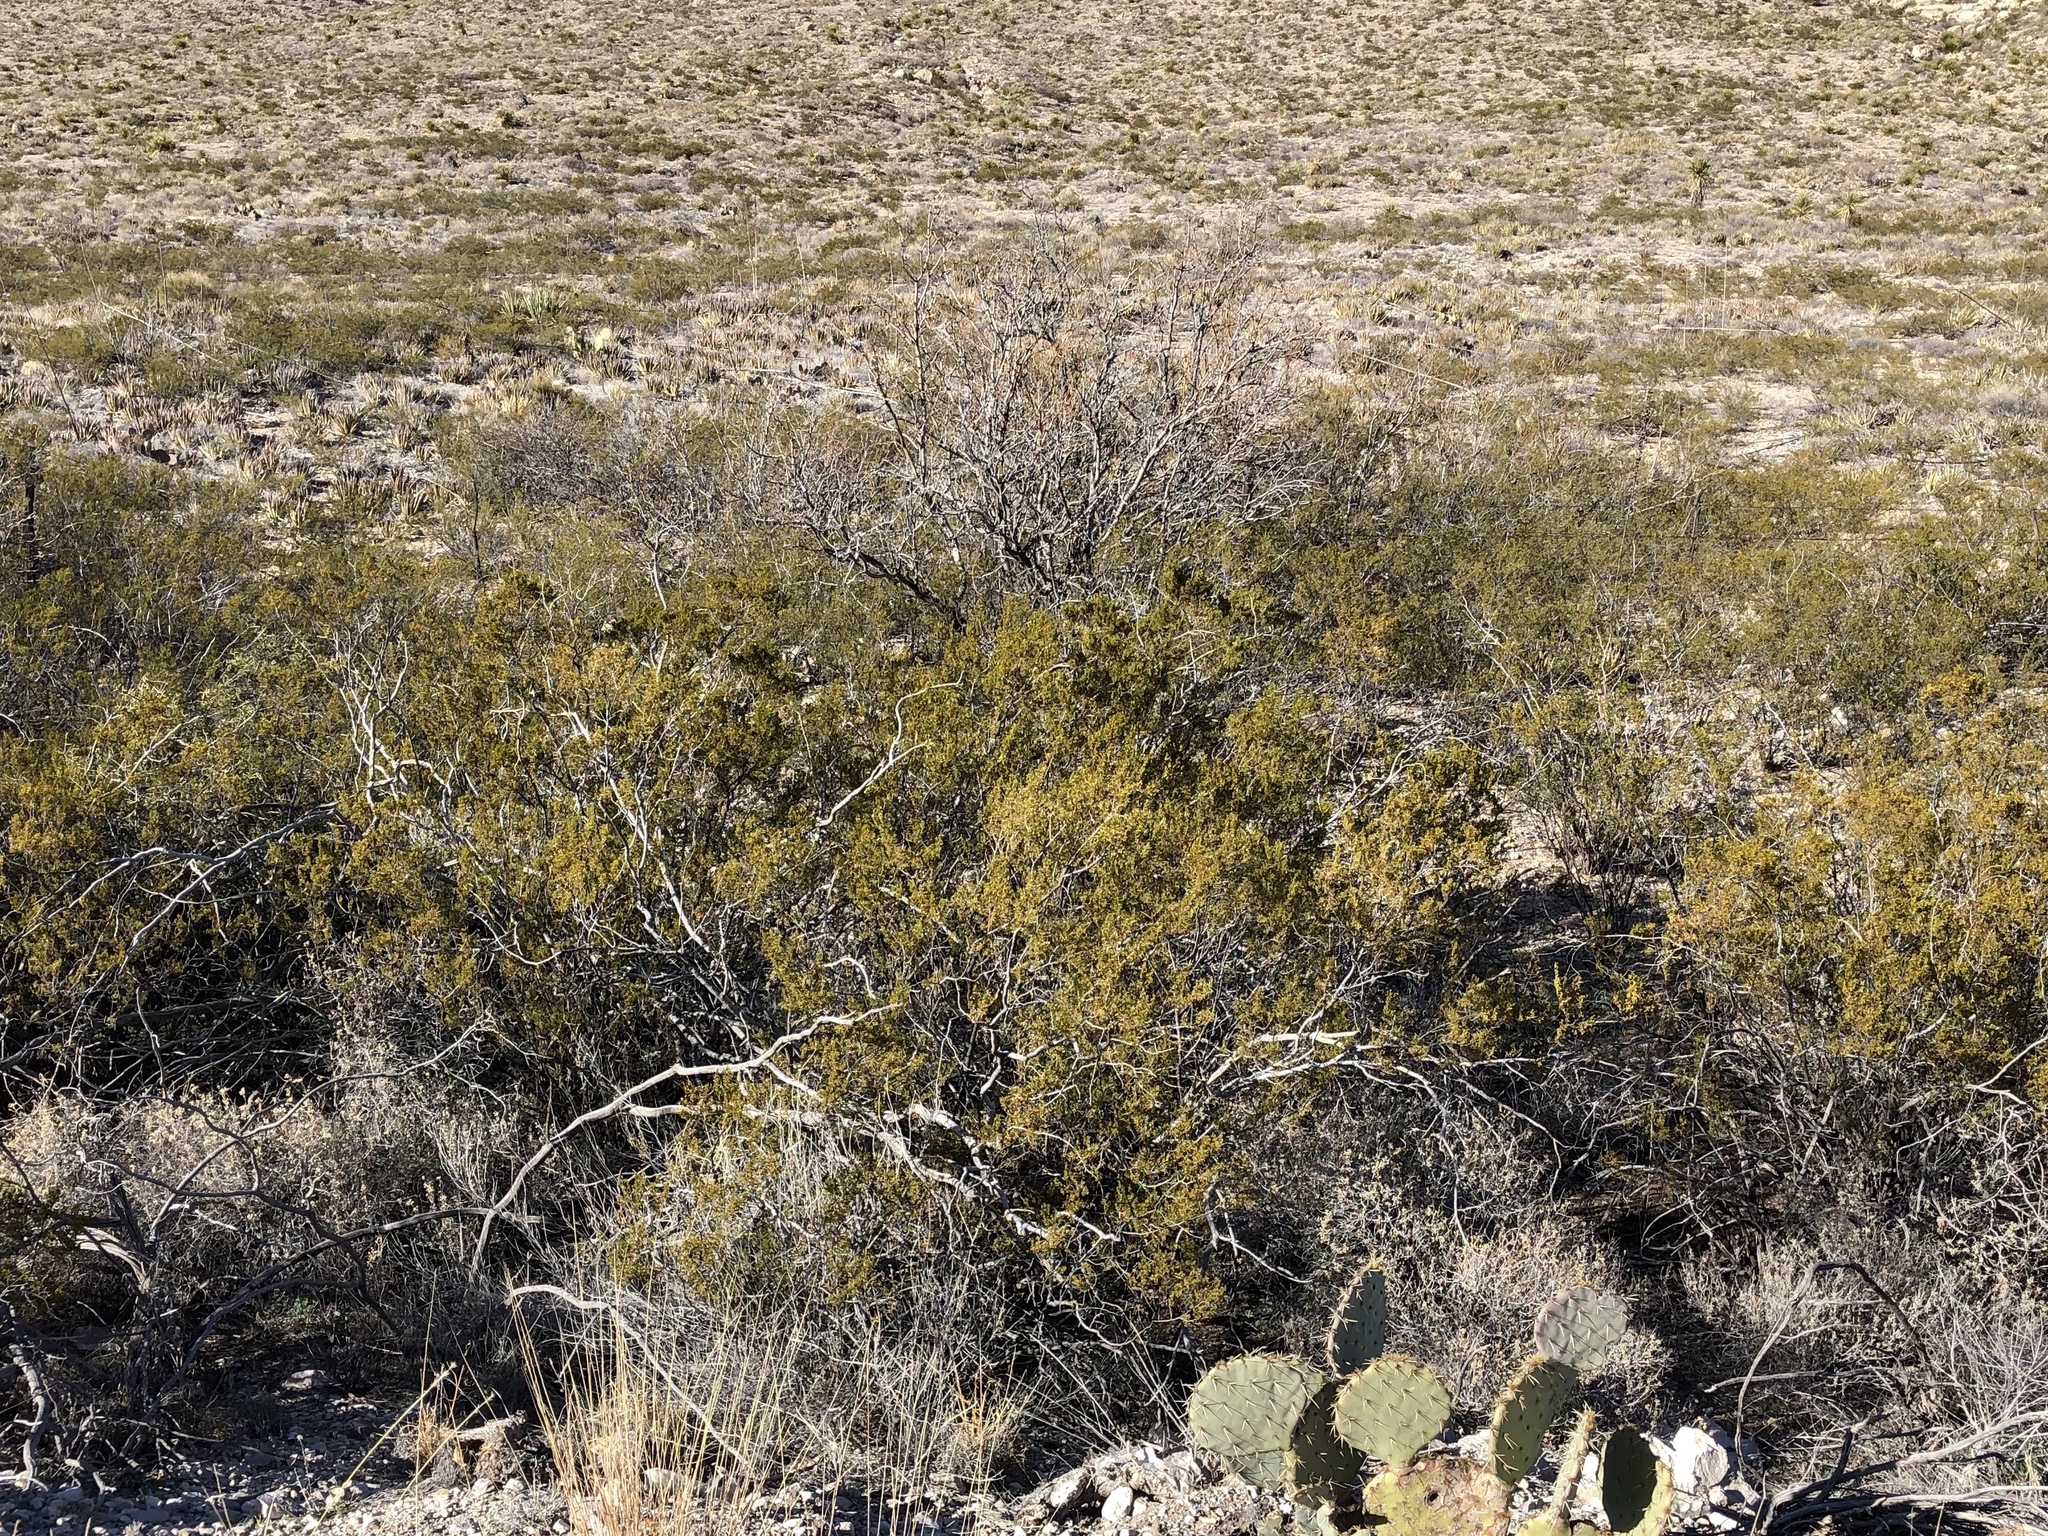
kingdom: Plantae
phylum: Tracheophyta
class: Magnoliopsida
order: Zygophyllales
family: Zygophyllaceae
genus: Larrea
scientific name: Larrea tridentata
